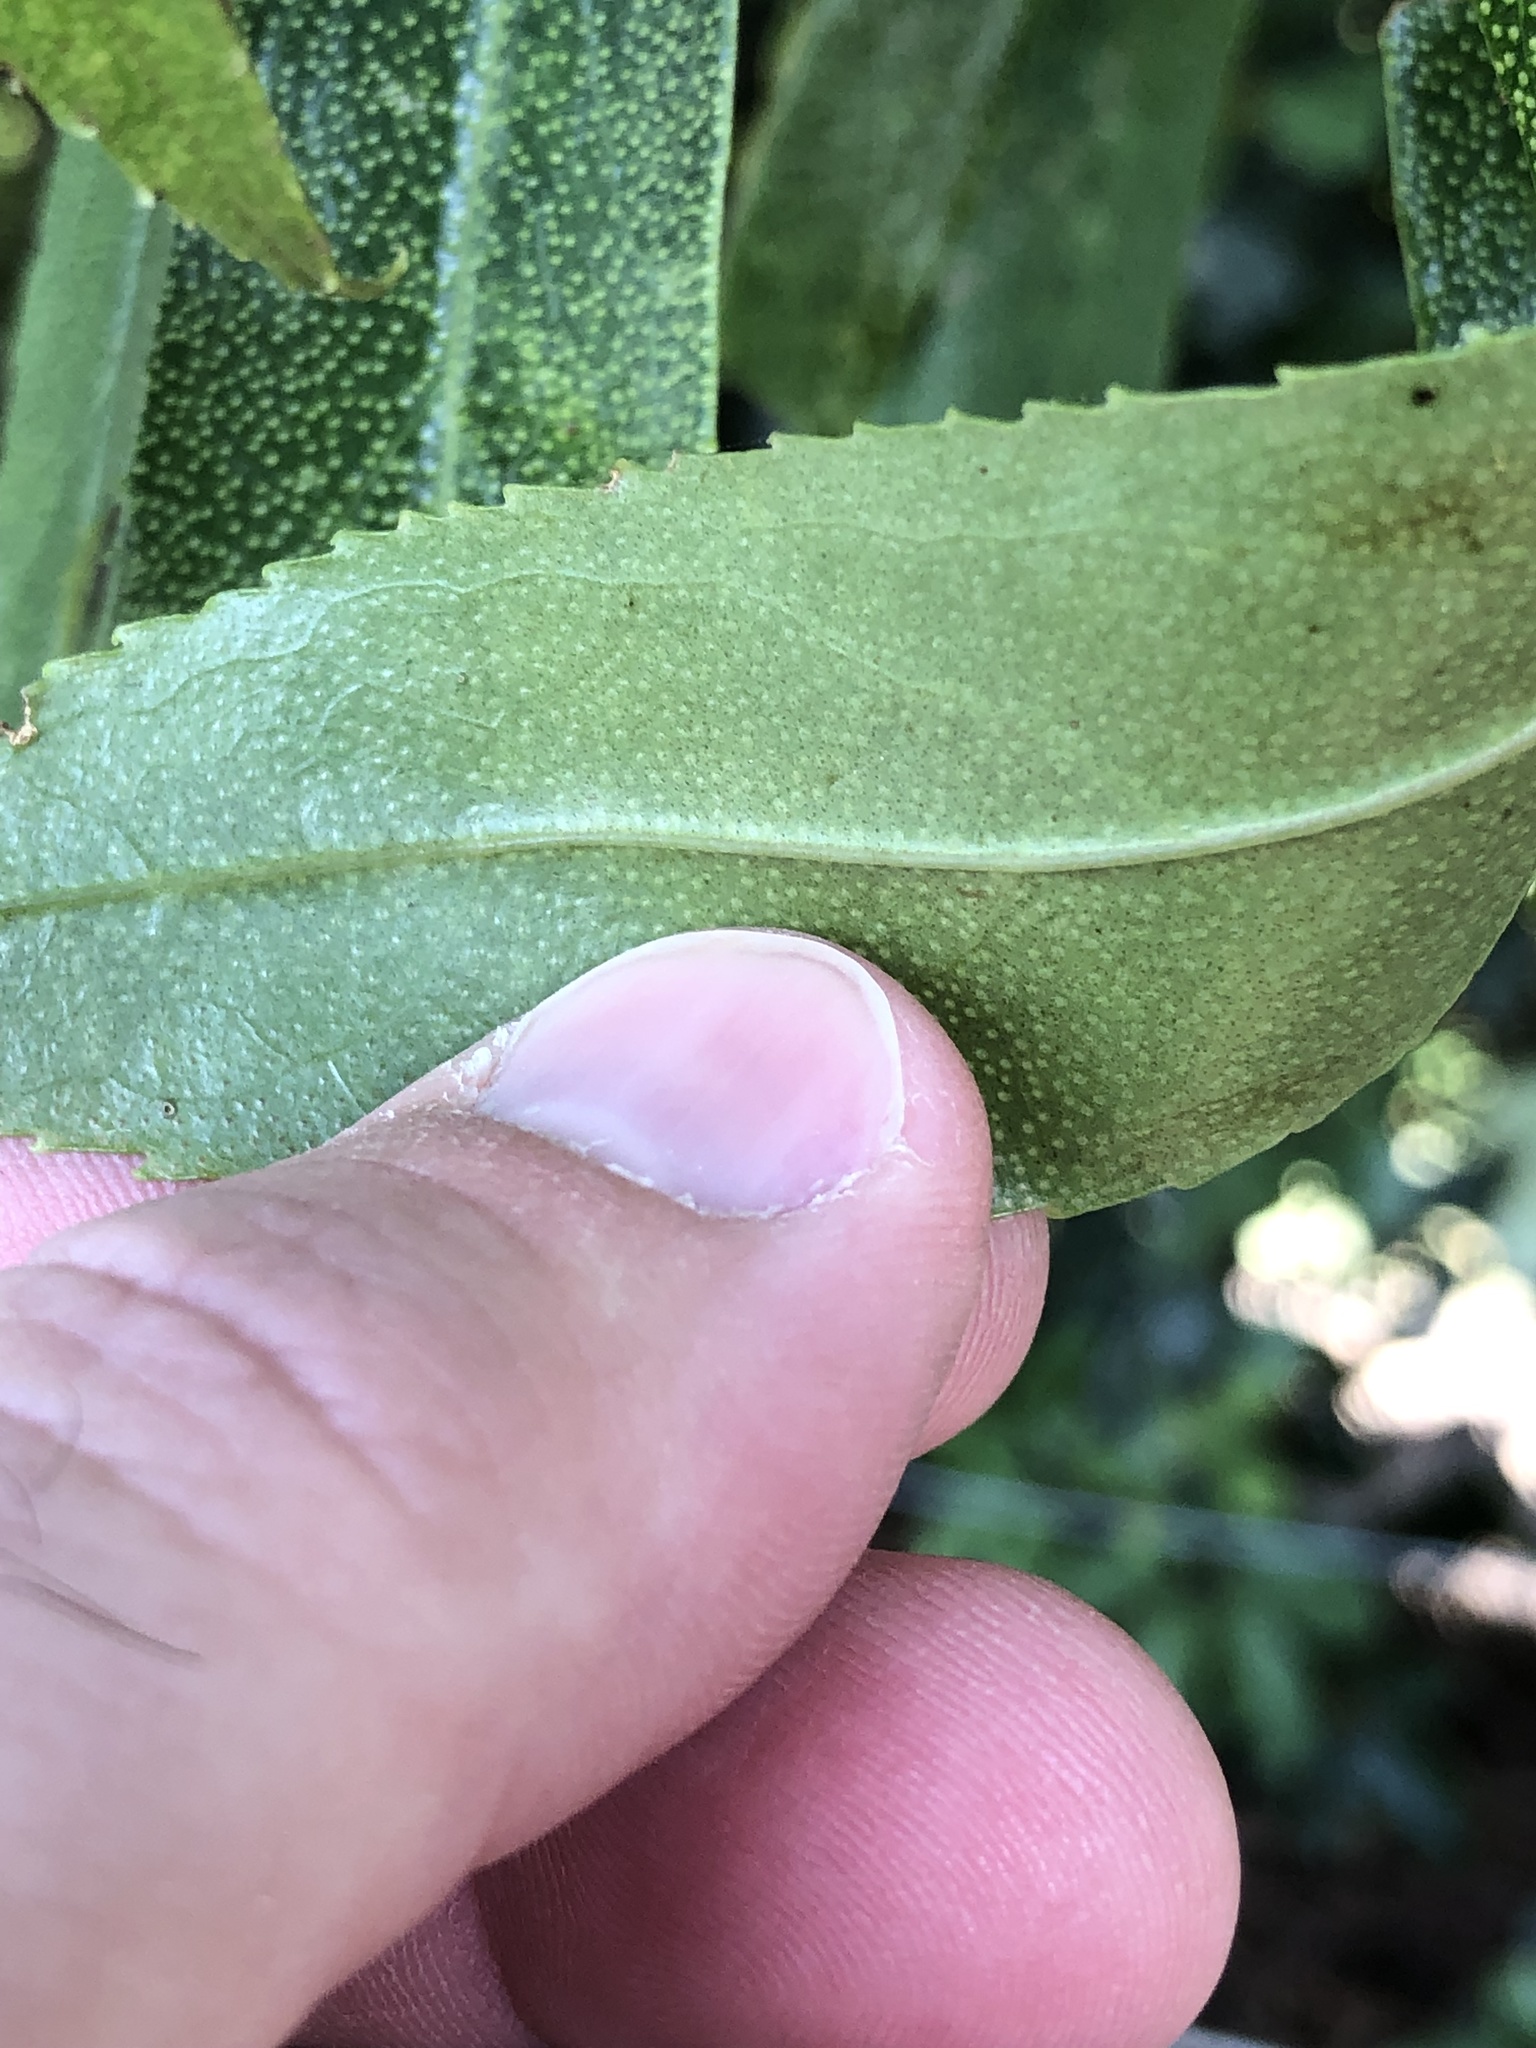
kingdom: Plantae
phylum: Tracheophyta
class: Magnoliopsida
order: Lamiales
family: Scrophulariaceae
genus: Myoporum
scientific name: Myoporum laetum
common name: Ngaio tree
